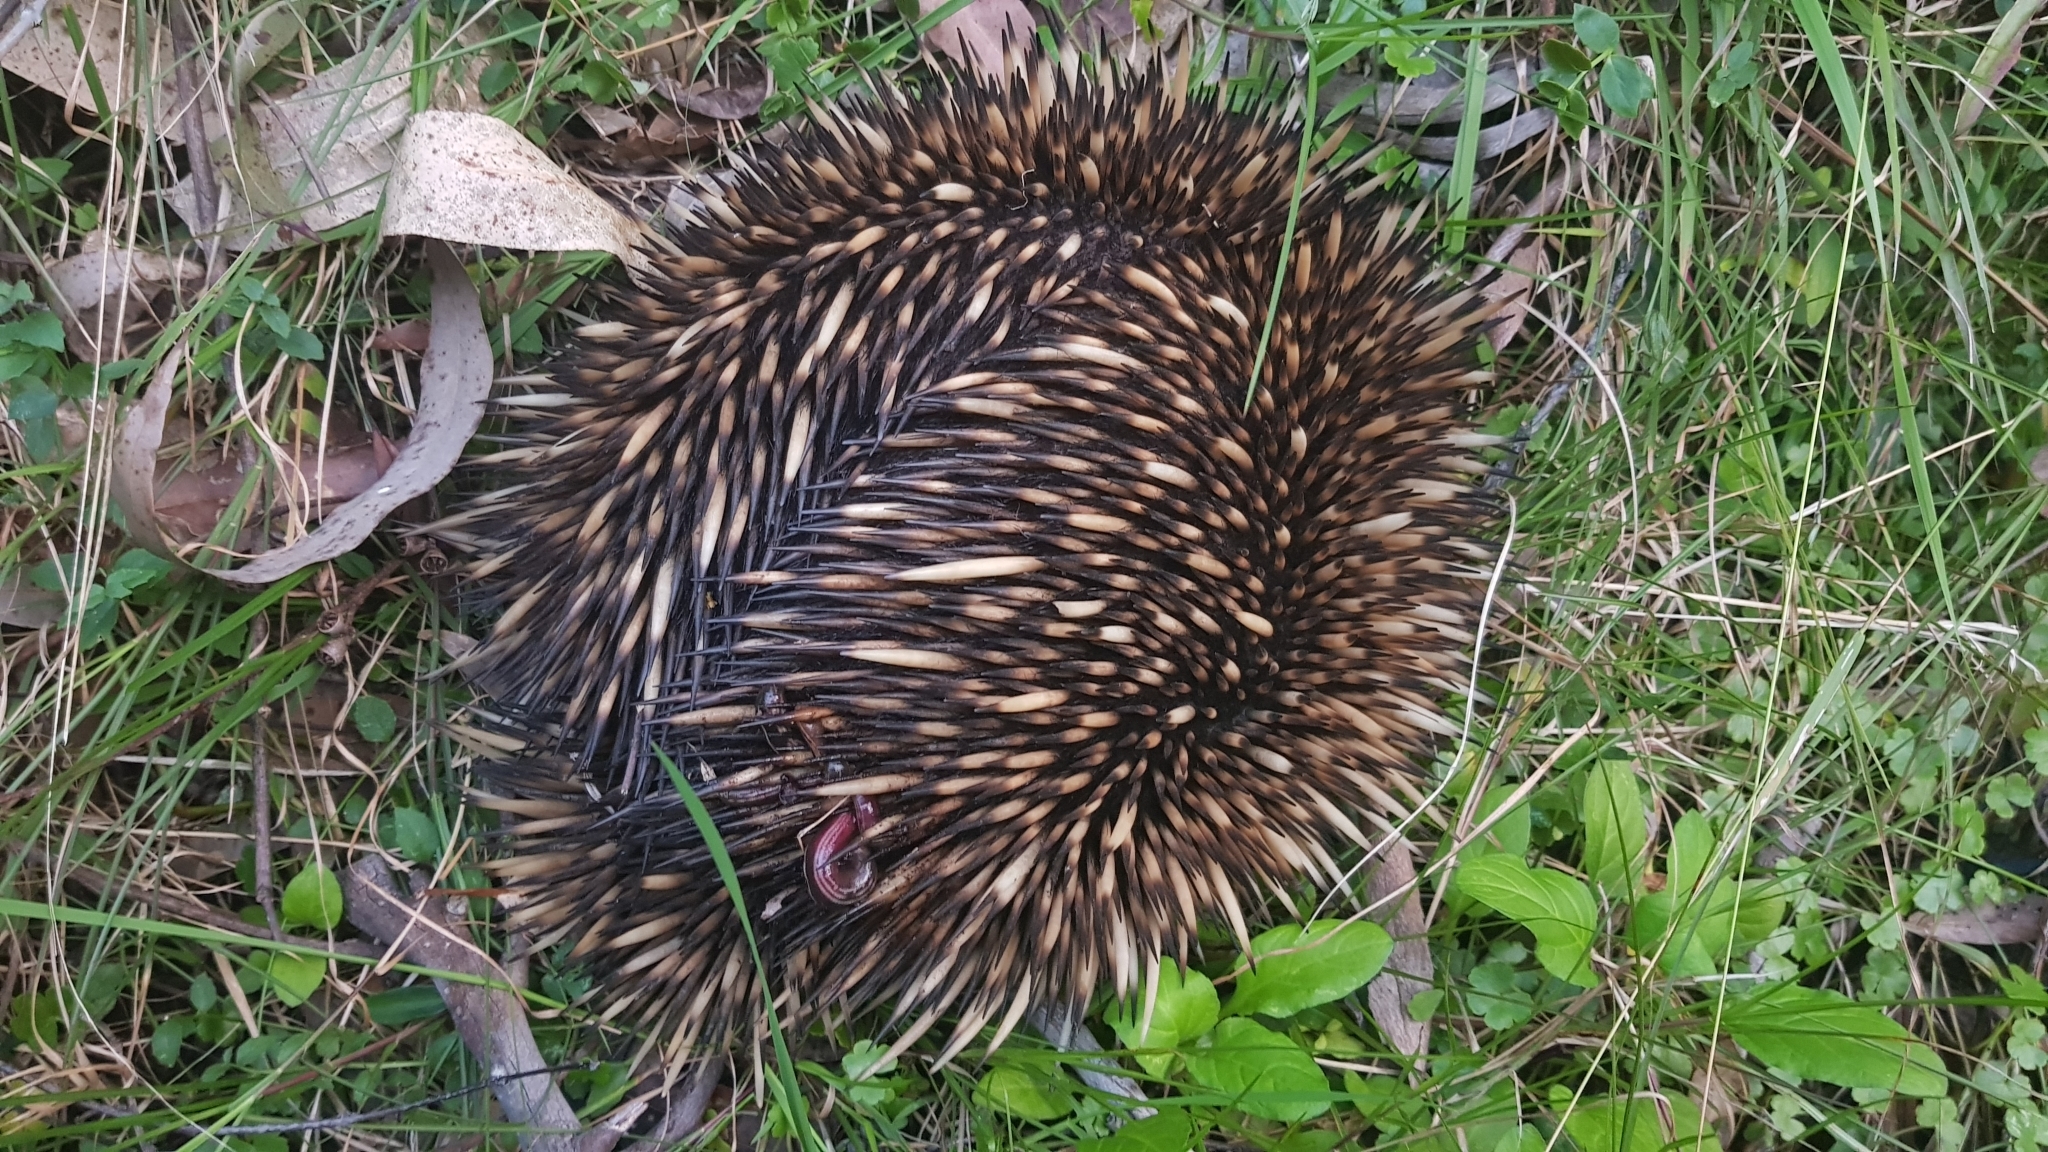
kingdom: Animalia
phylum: Chordata
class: Mammalia
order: Monotremata
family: Tachyglossidae
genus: Tachyglossus
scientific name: Tachyglossus aculeatus
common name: Short-beaked echidna
